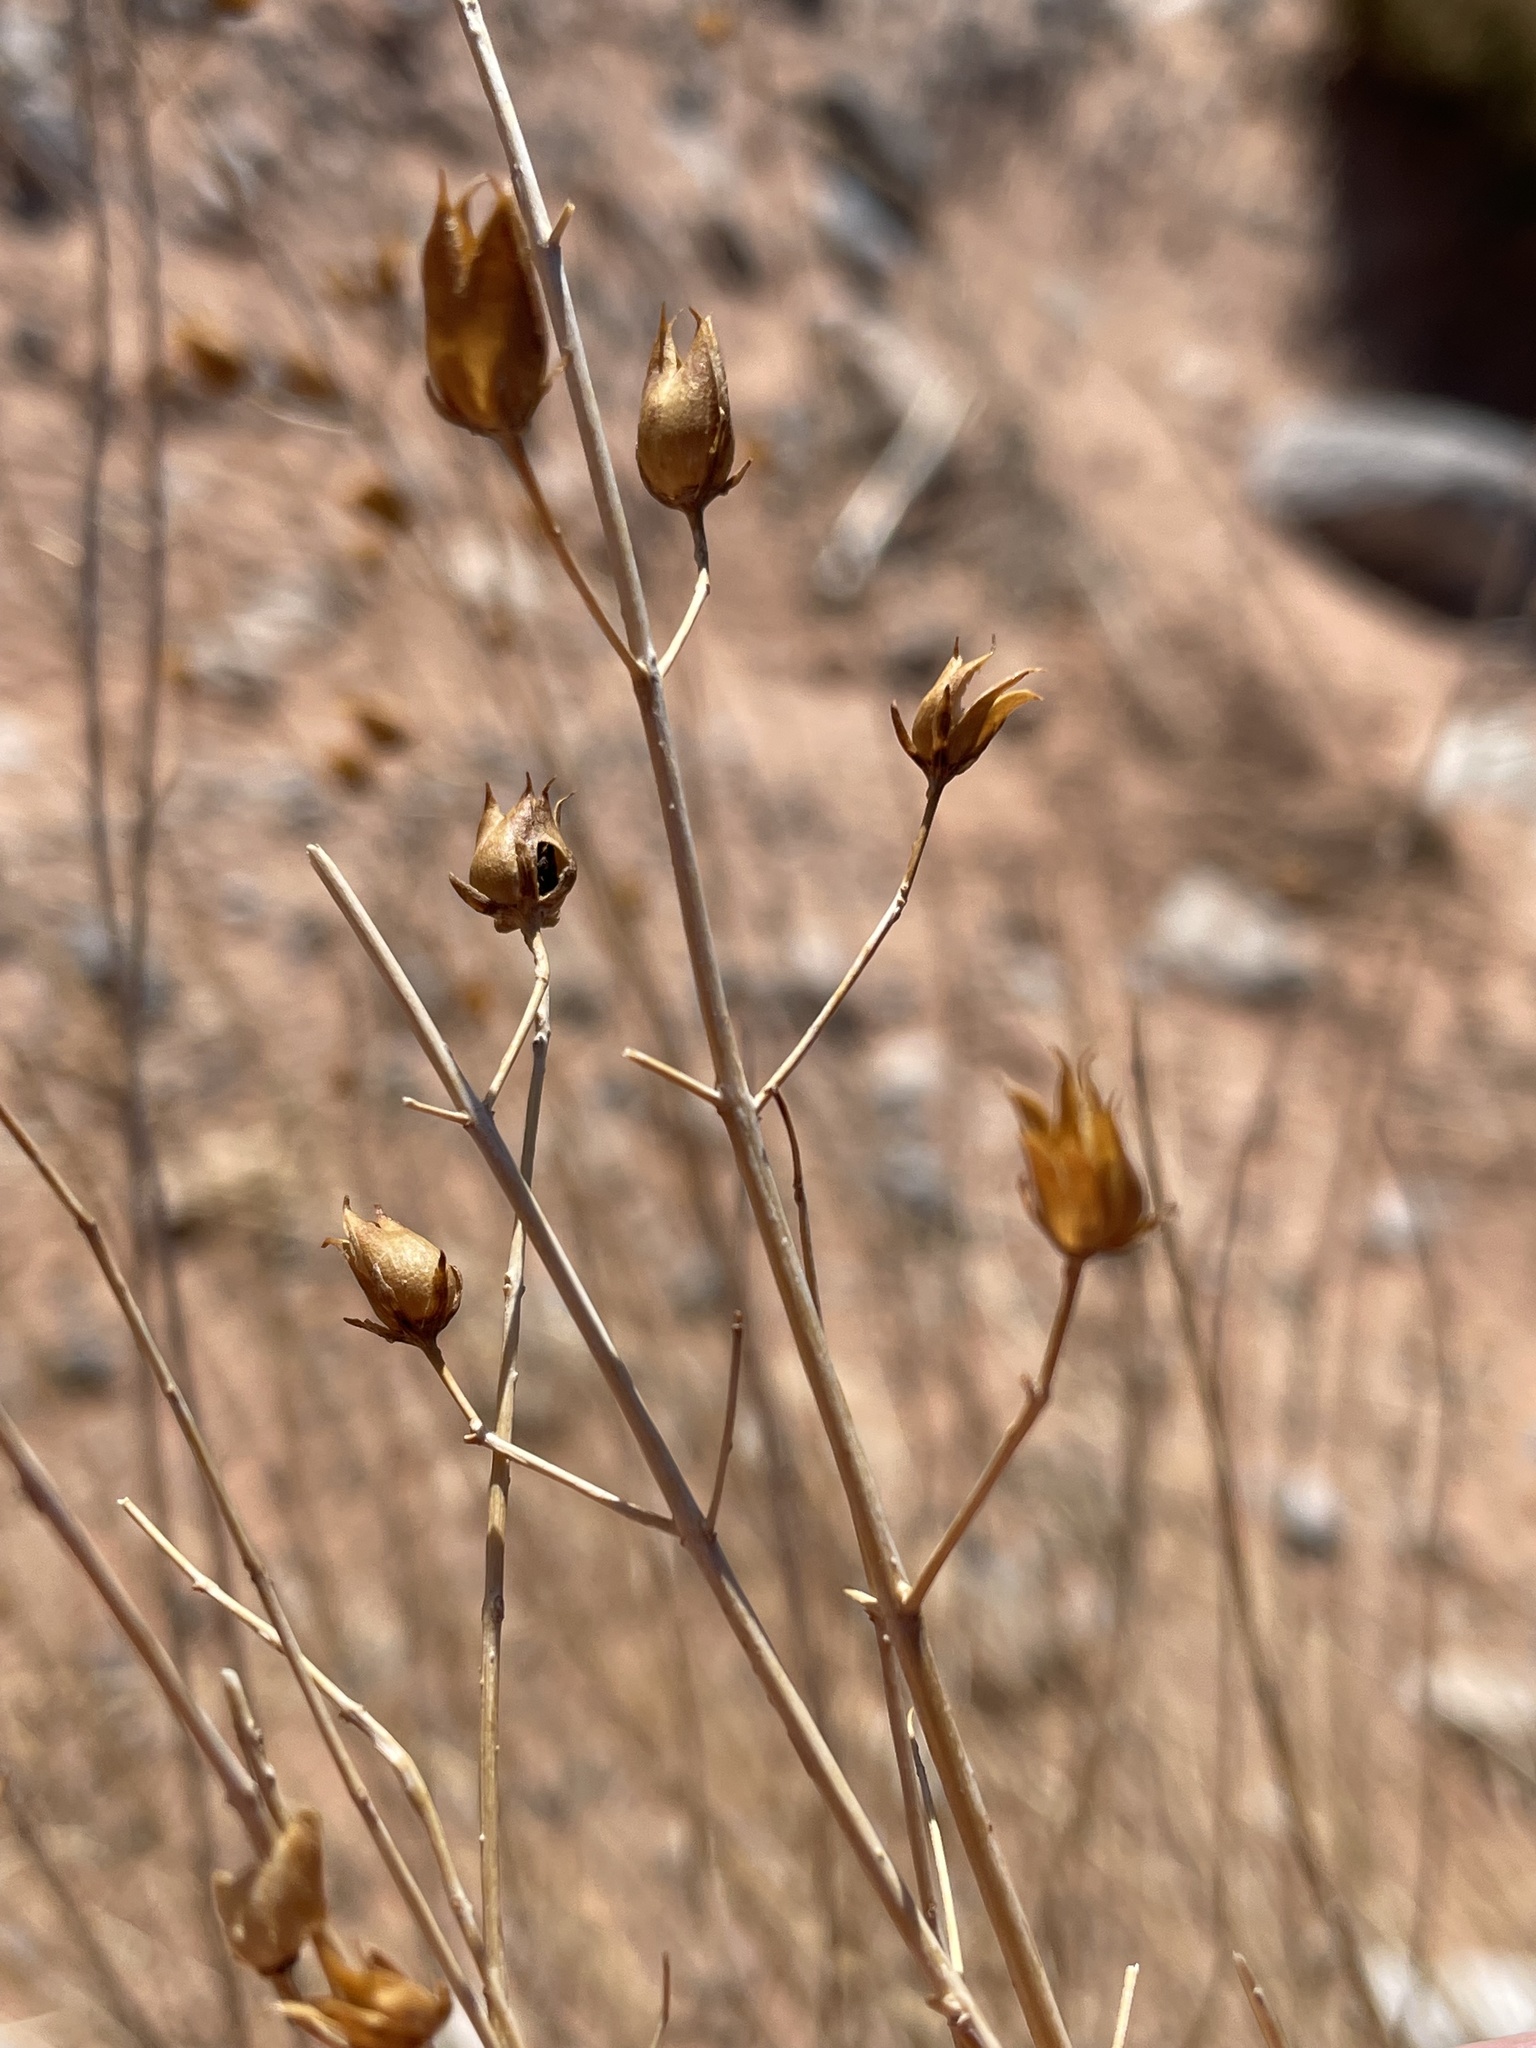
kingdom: Plantae
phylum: Tracheophyta
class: Magnoliopsida
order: Lamiales
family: Plantaginaceae
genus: Penstemon
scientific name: Penstemon ambiguus
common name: Bush penstemon
